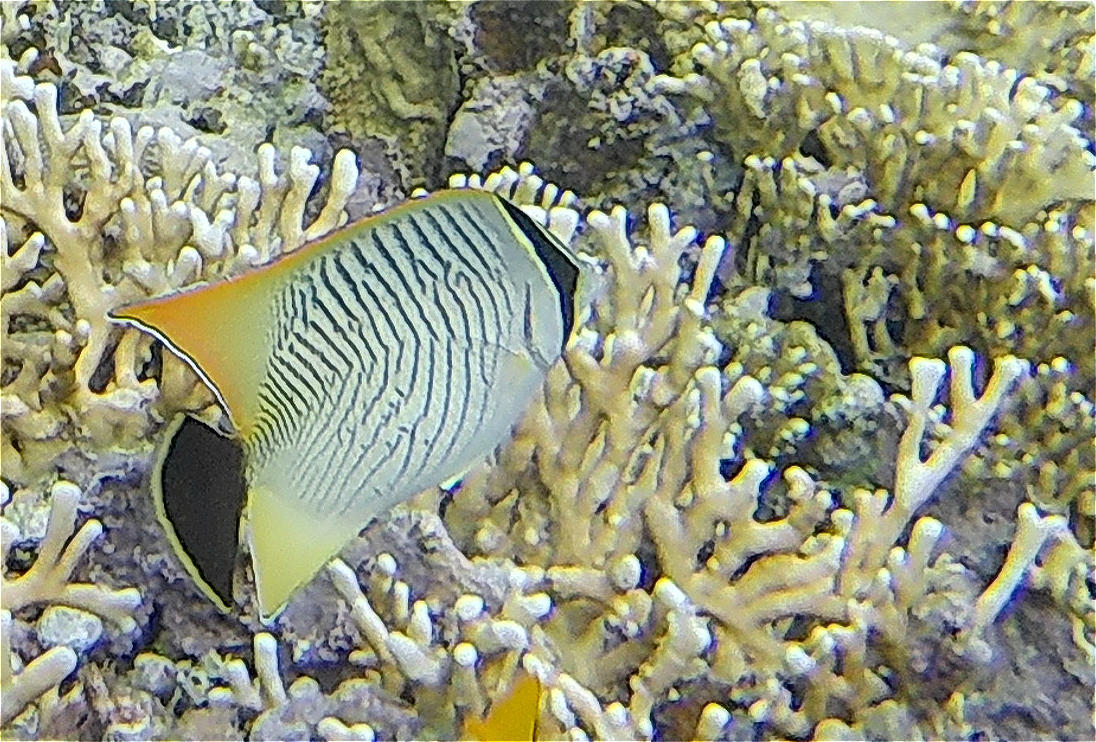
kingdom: Animalia
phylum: Chordata
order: Perciformes
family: Chaetodontidae
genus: Chaetodon
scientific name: Chaetodon trifascialis
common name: Chevroned butterflyfish
